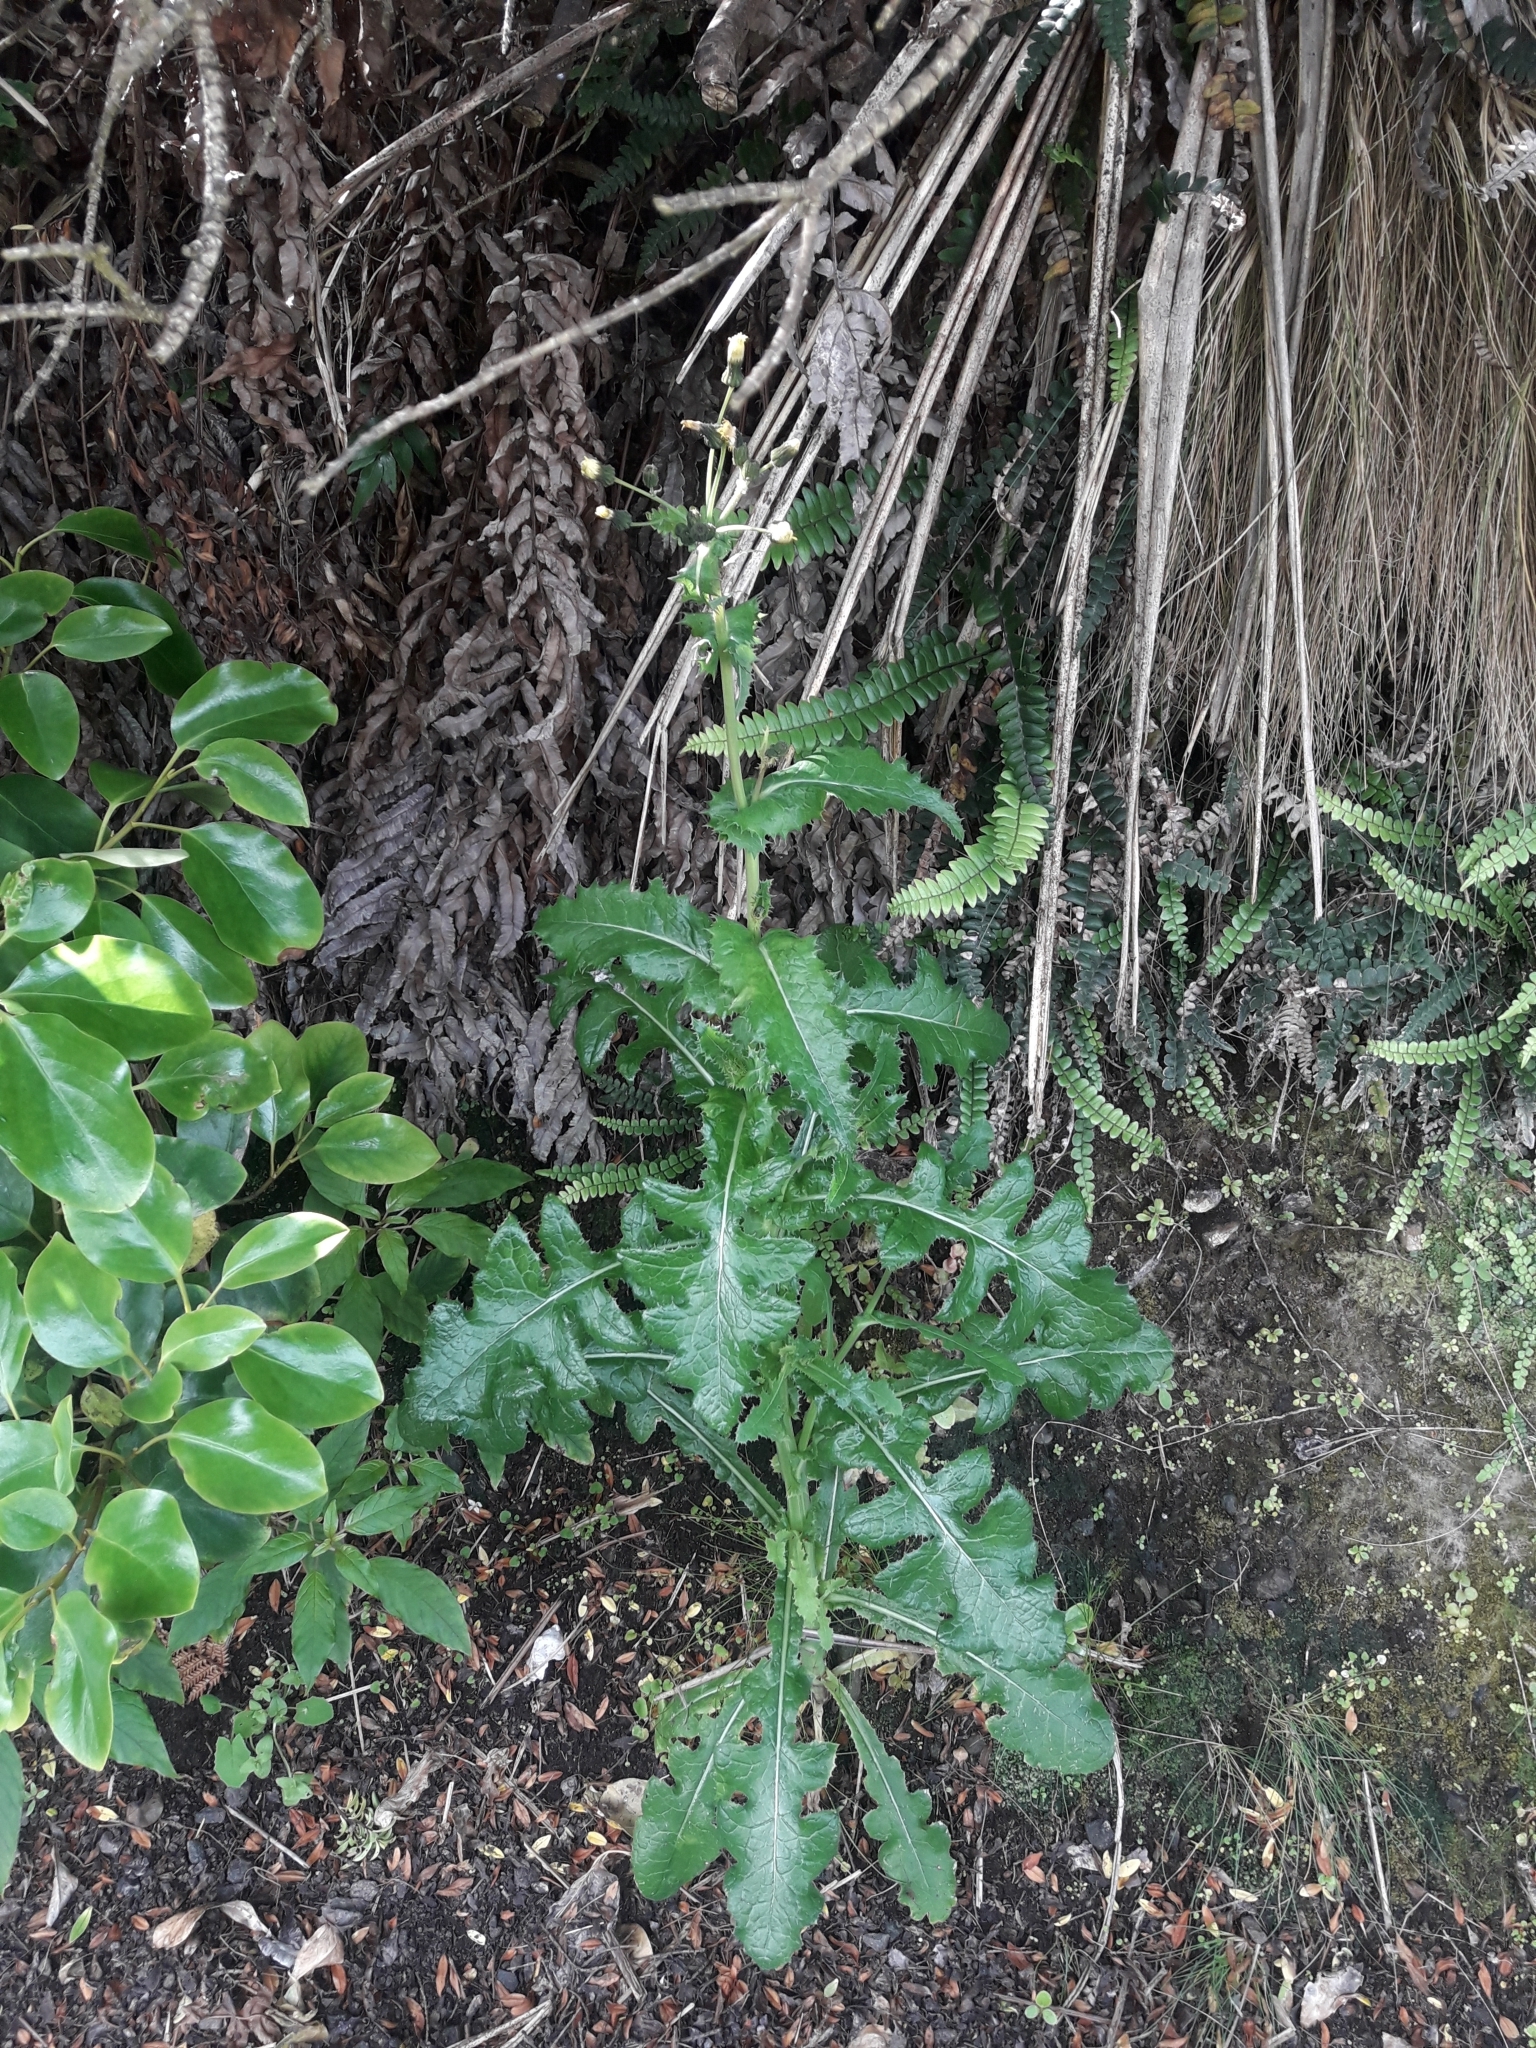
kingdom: Plantae
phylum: Tracheophyta
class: Magnoliopsida
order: Asterales
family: Asteraceae
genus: Sonchus
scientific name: Sonchus oleraceus
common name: Common sowthistle
